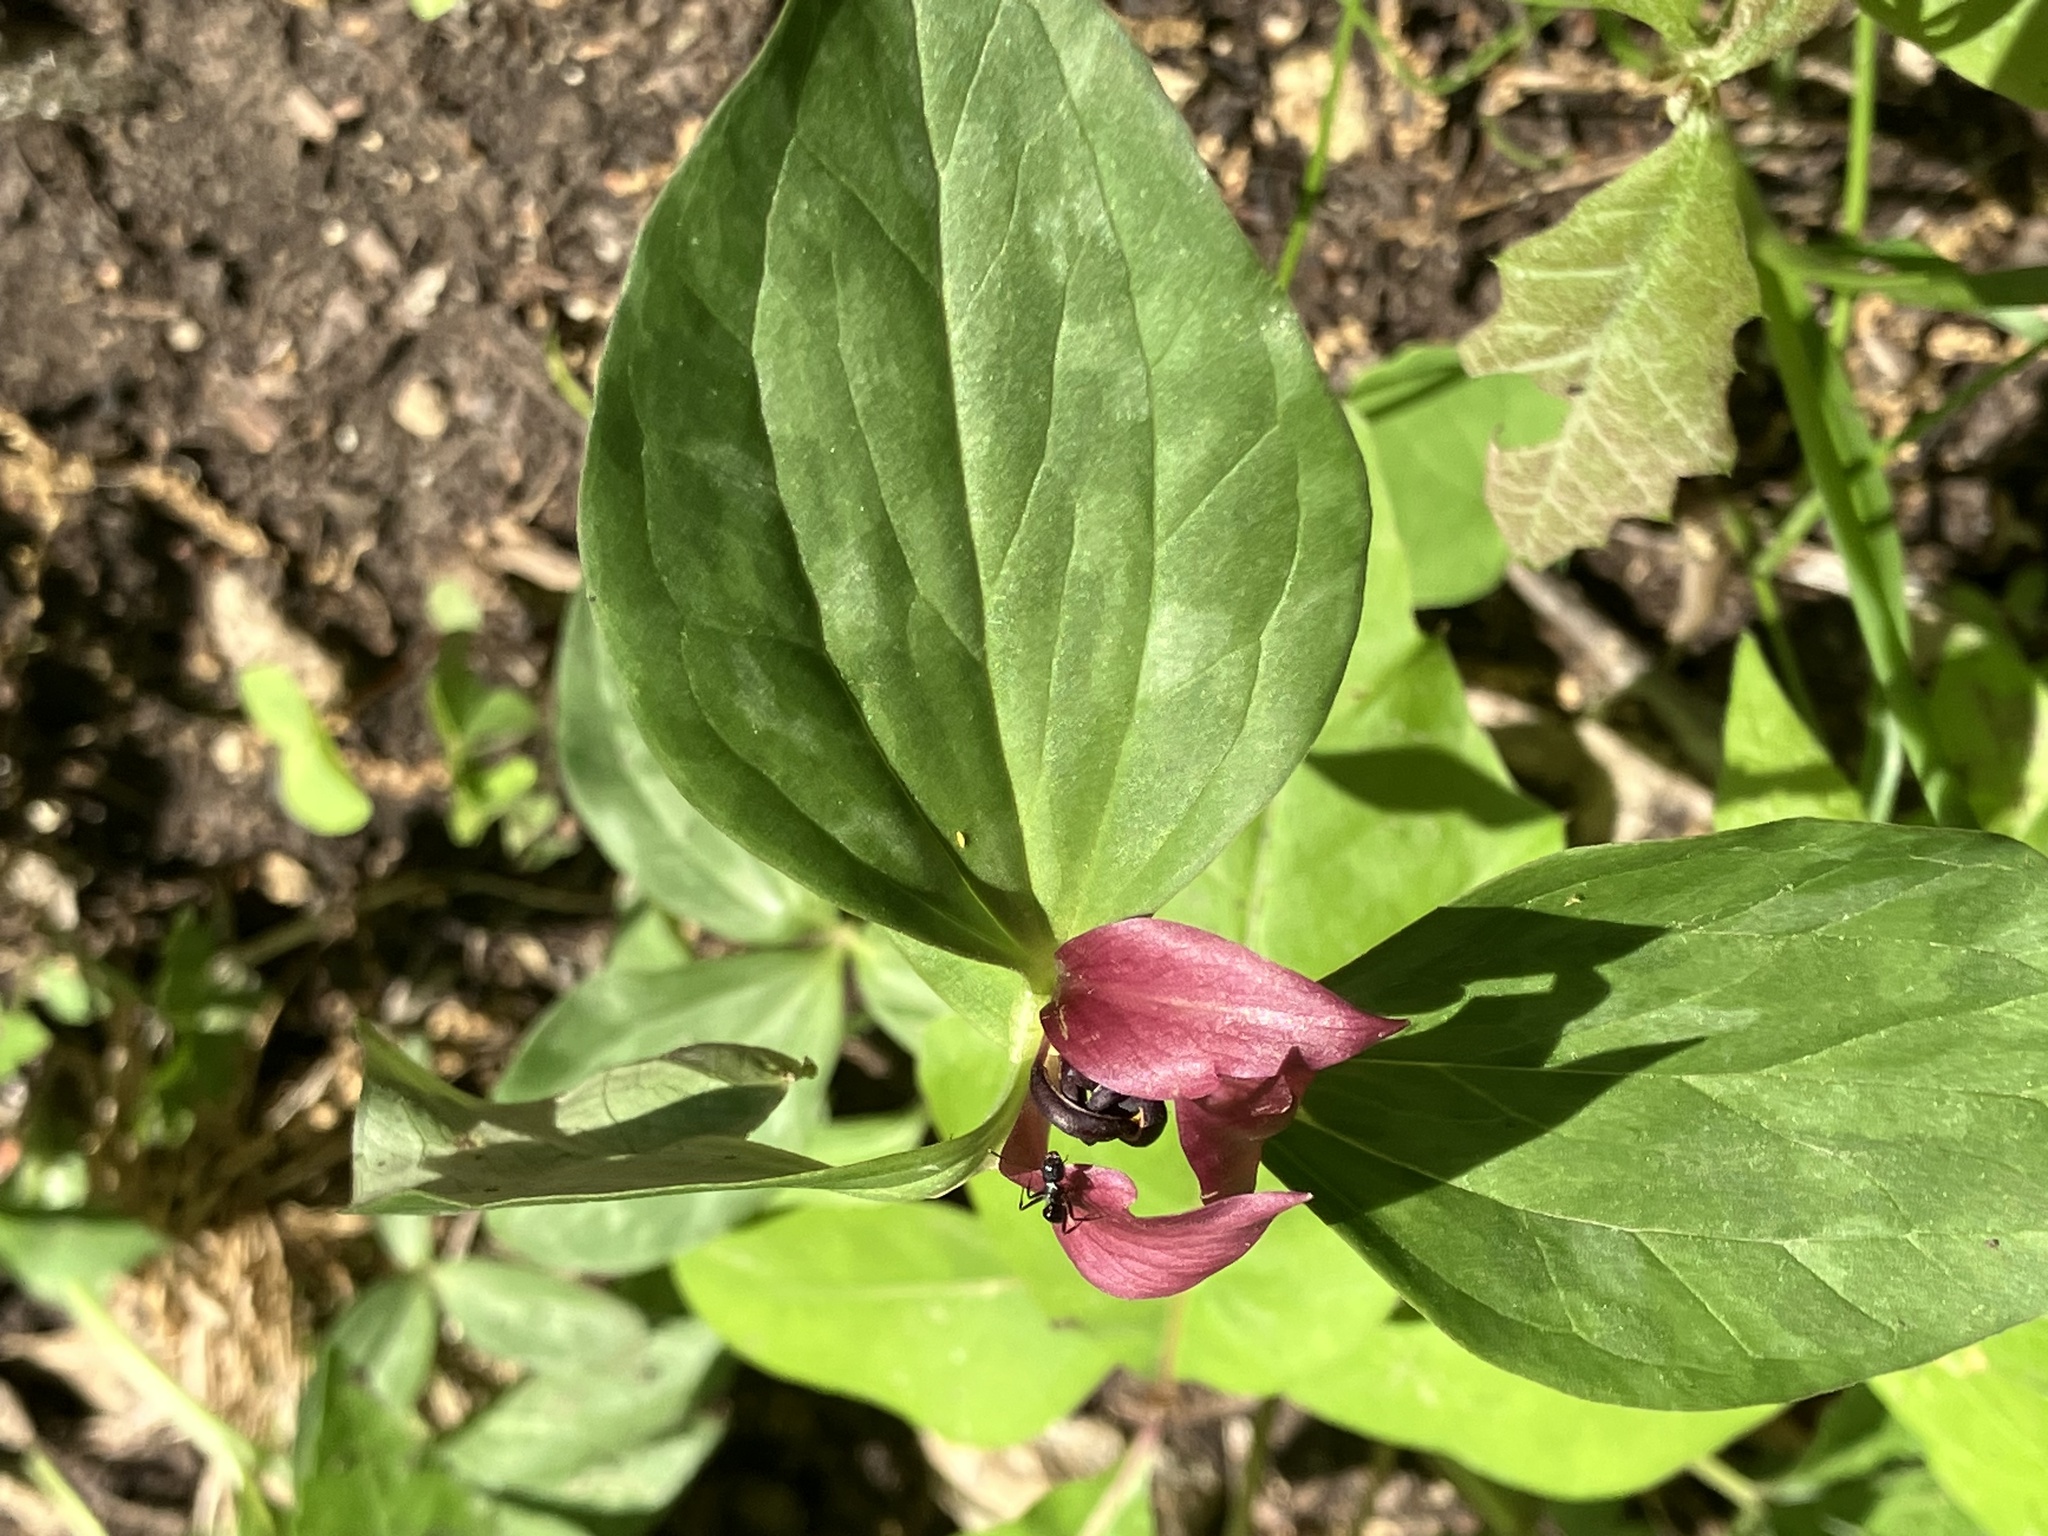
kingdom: Plantae
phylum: Tracheophyta
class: Liliopsida
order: Liliales
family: Melanthiaceae
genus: Trillium
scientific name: Trillium recurvatum
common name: Bloody butcher
